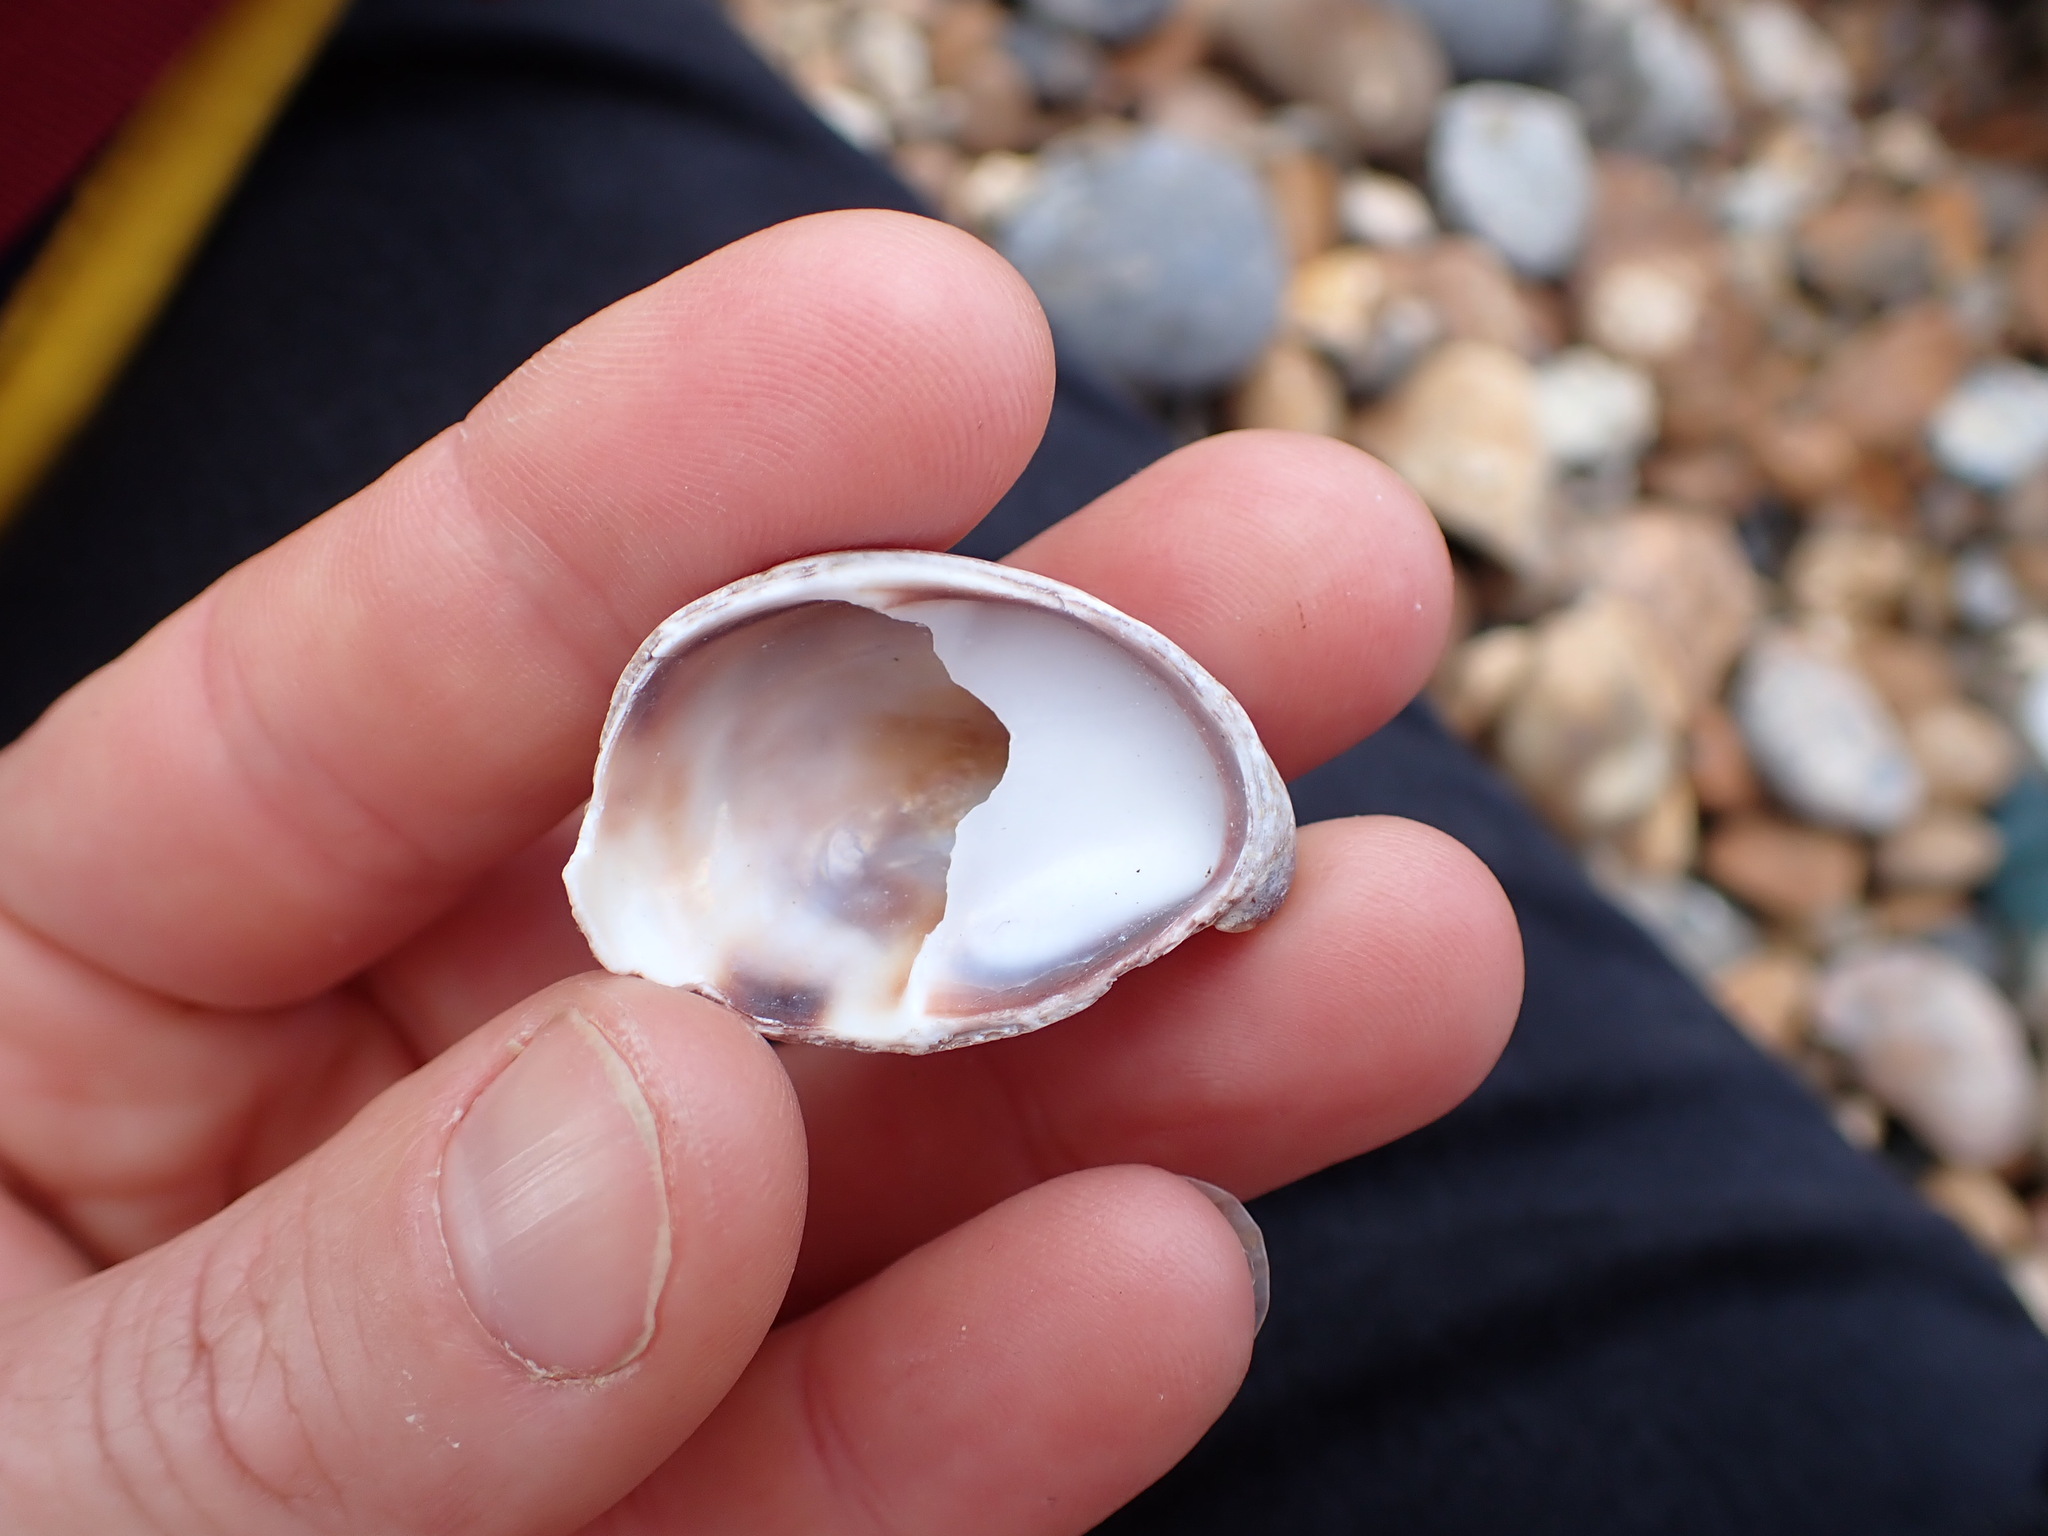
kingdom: Animalia
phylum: Mollusca
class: Gastropoda
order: Littorinimorpha
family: Calyptraeidae
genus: Crepidula
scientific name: Crepidula fornicata
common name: Slipper limpet
